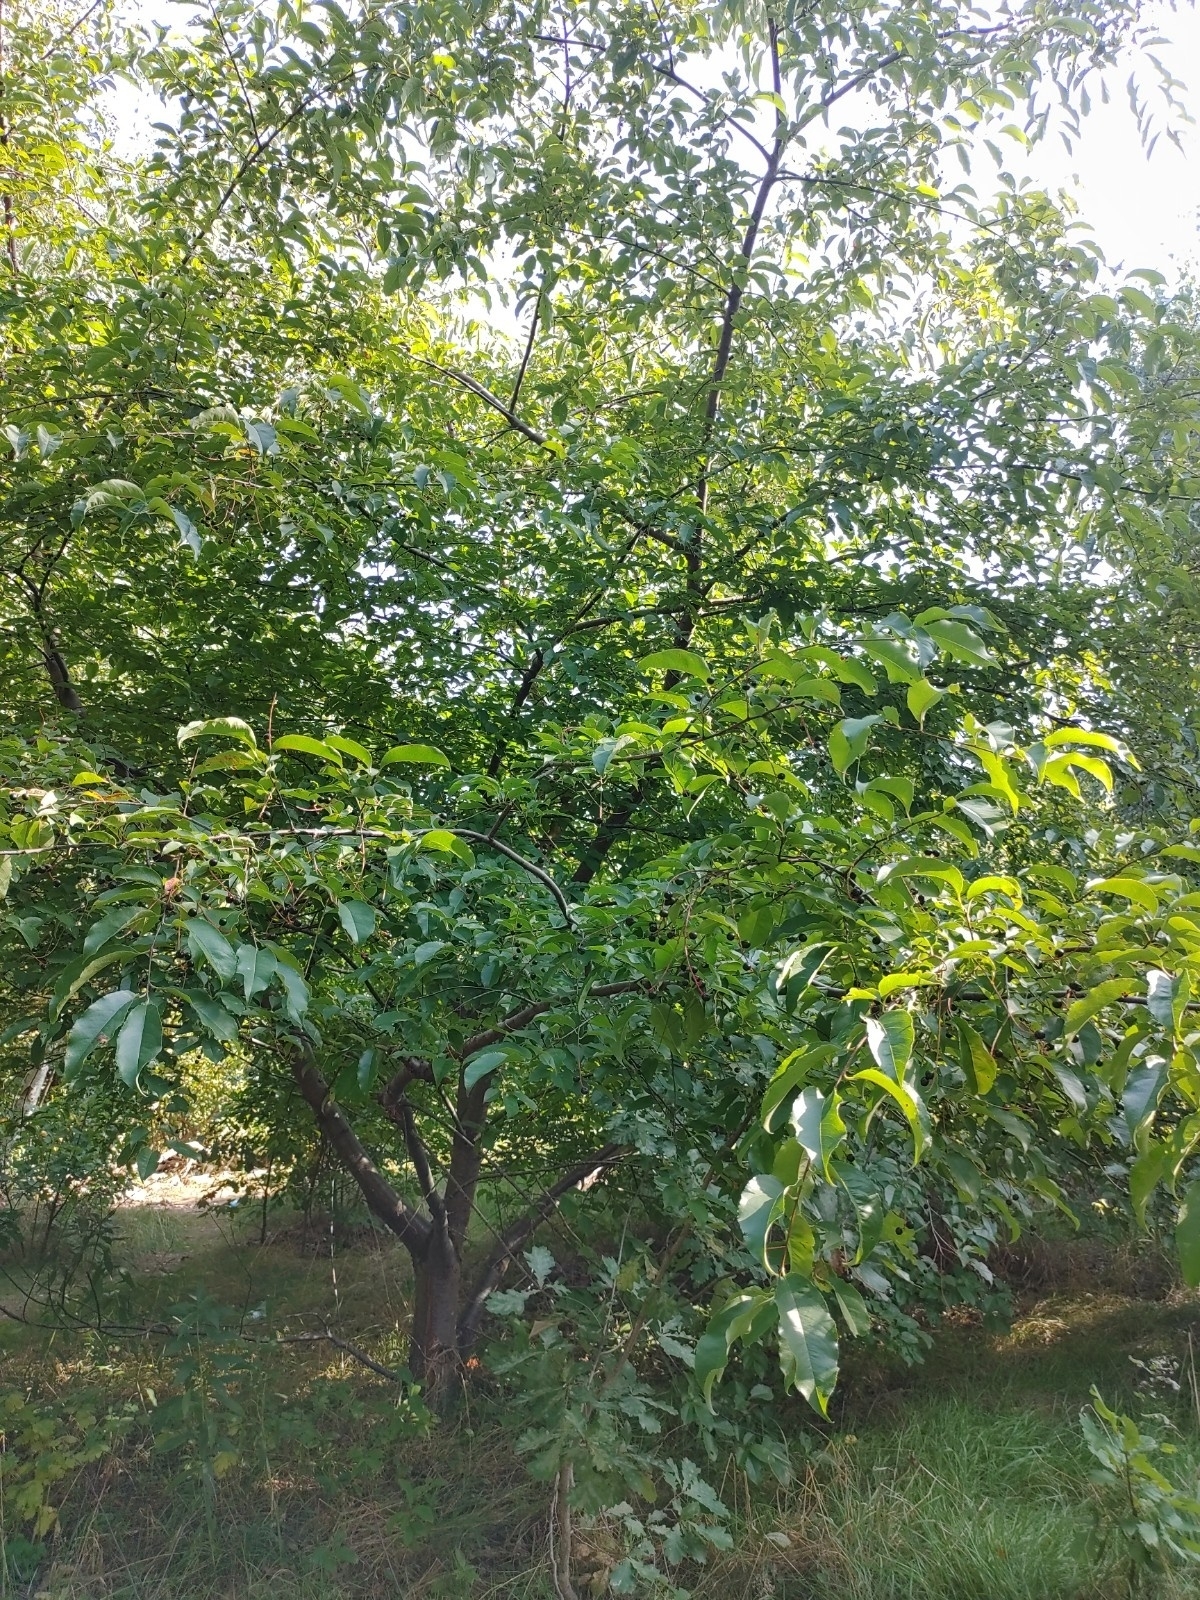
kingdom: Plantae
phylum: Tracheophyta
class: Magnoliopsida
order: Rosales
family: Rosaceae
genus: Prunus
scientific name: Prunus serotina
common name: Black cherry
